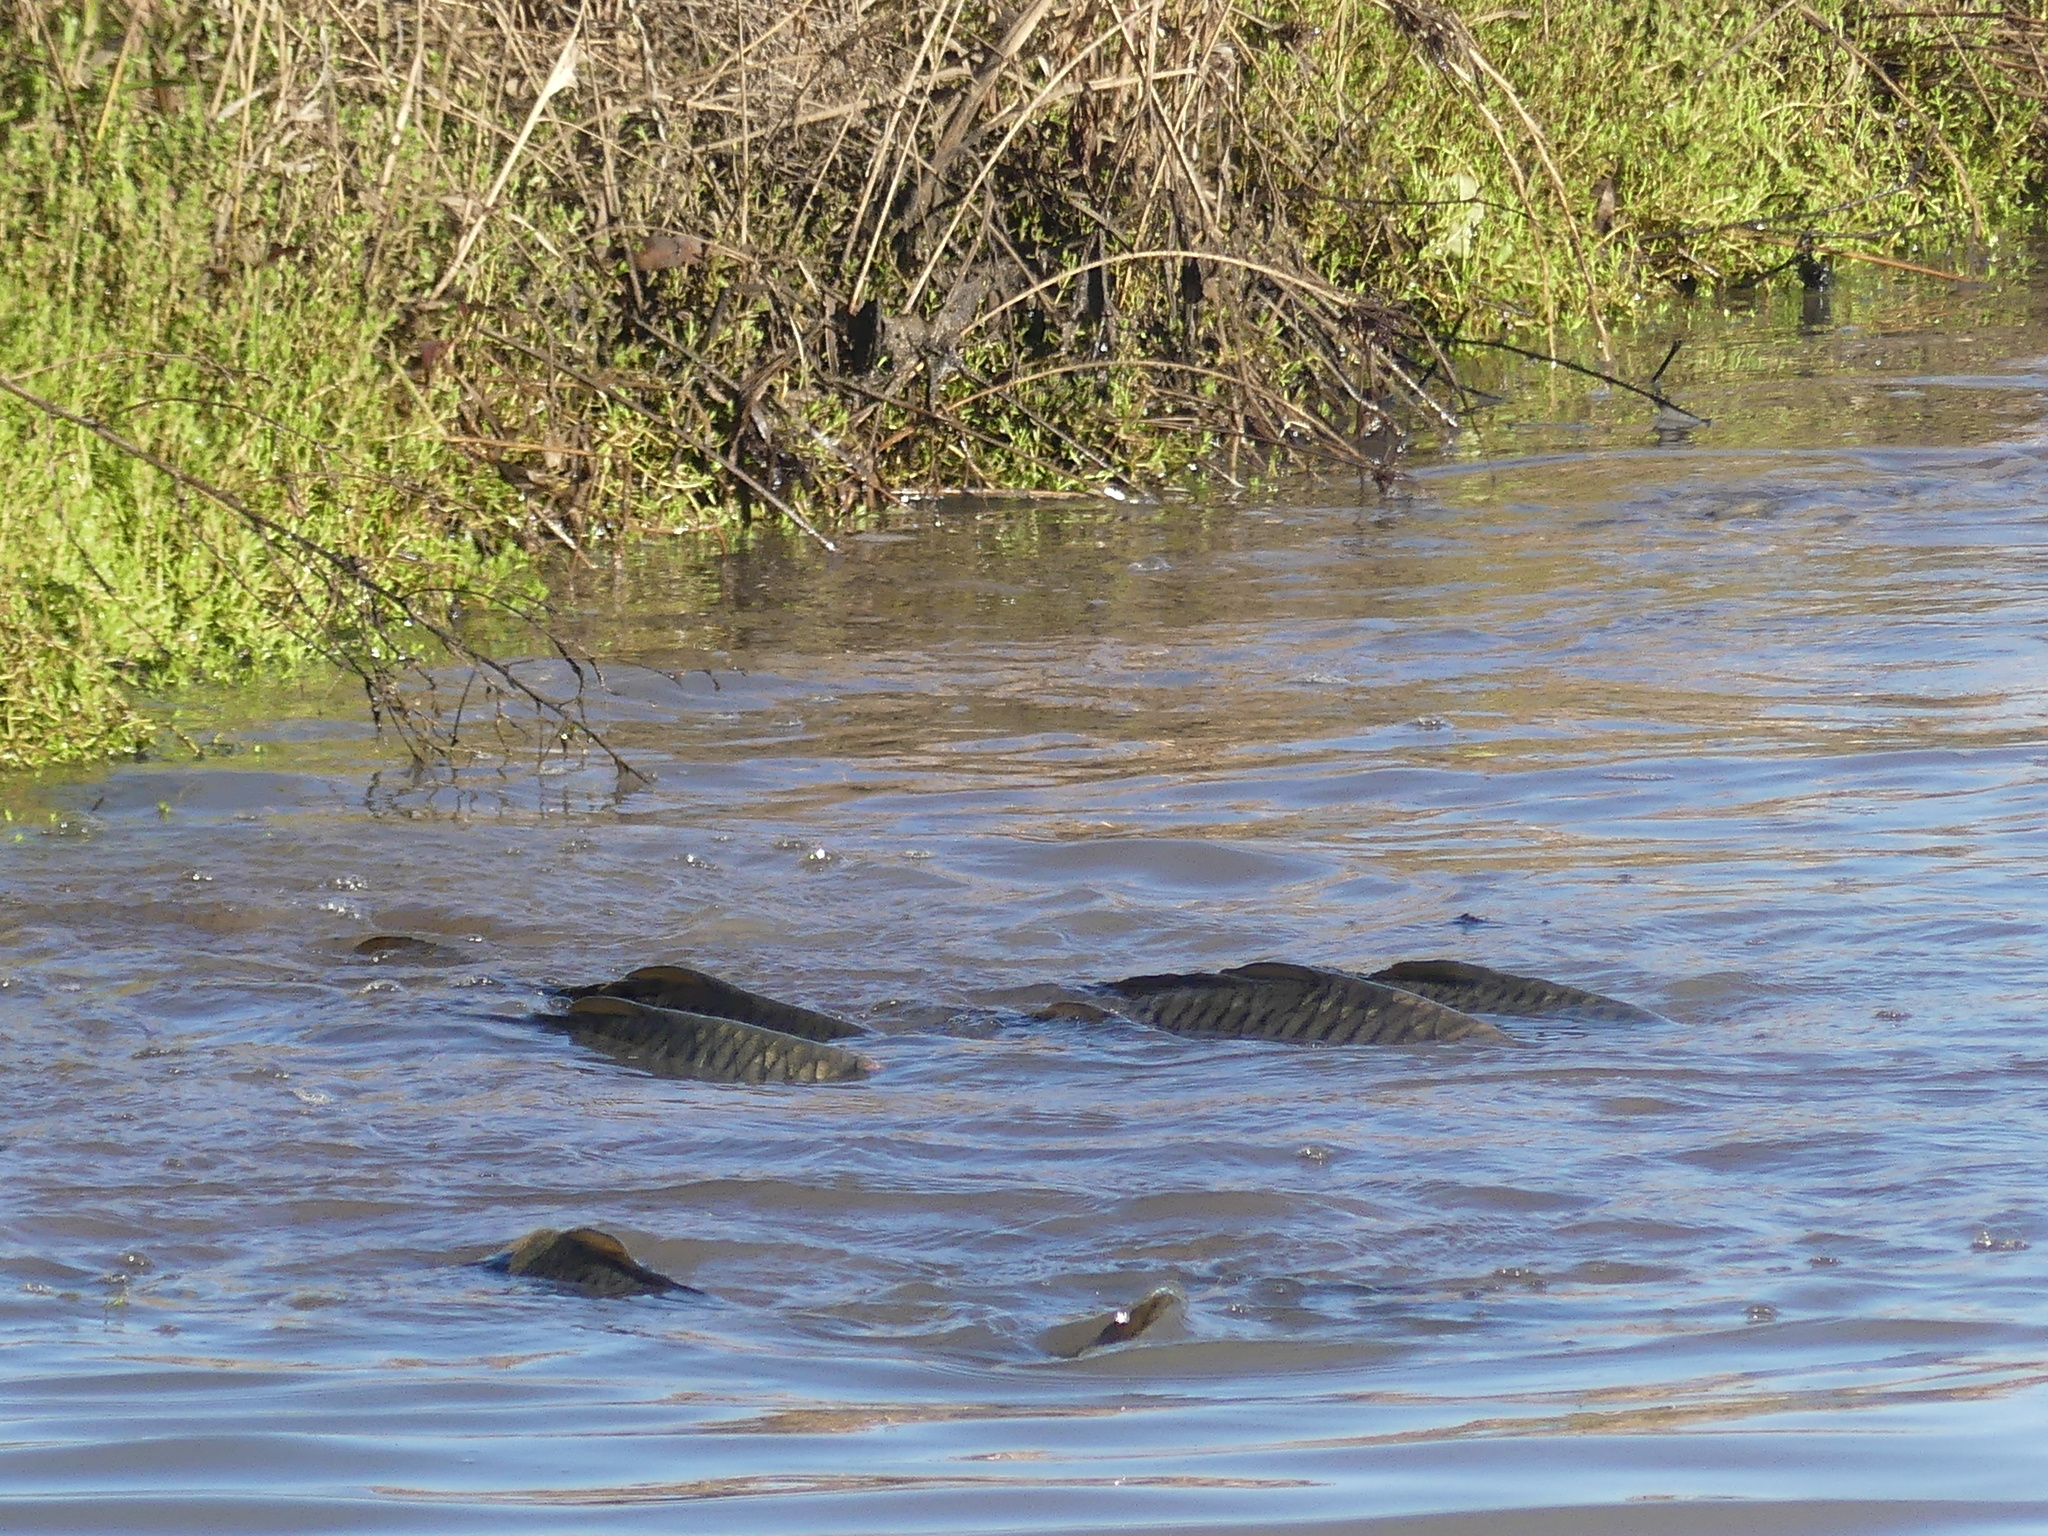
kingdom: Animalia
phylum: Chordata
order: Cypriniformes
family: Cyprinidae
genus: Cyprinus
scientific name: Cyprinus carpio
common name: Common carp
